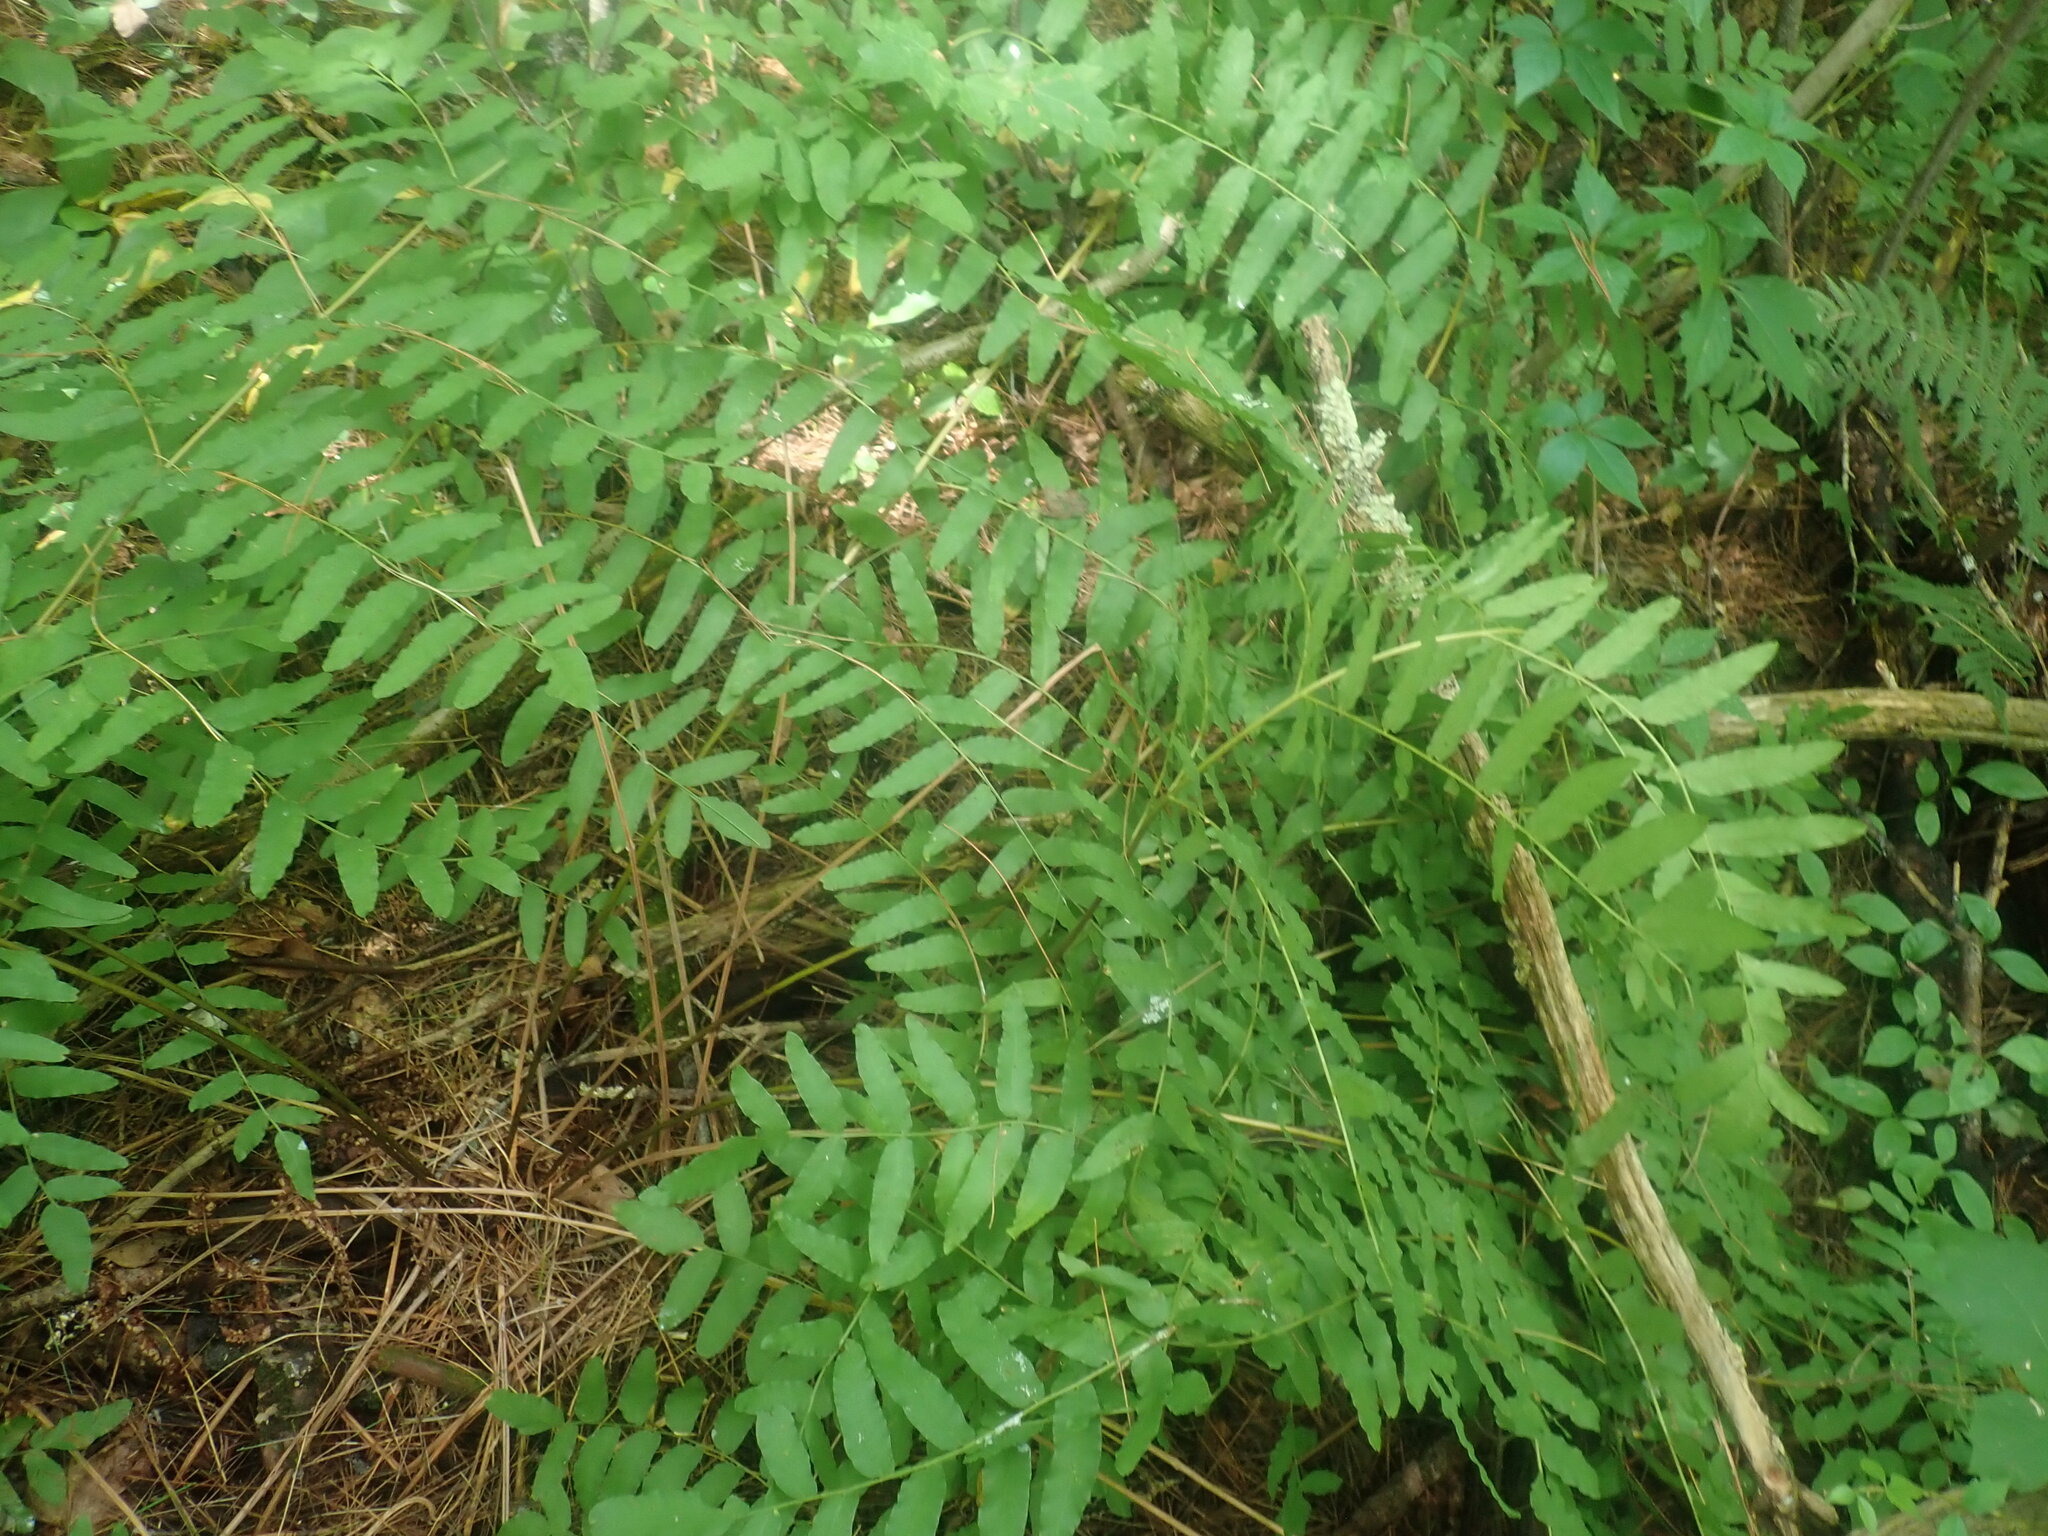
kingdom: Plantae
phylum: Tracheophyta
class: Polypodiopsida
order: Osmundales
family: Osmundaceae
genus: Osmunda
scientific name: Osmunda spectabilis
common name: American royal fern
